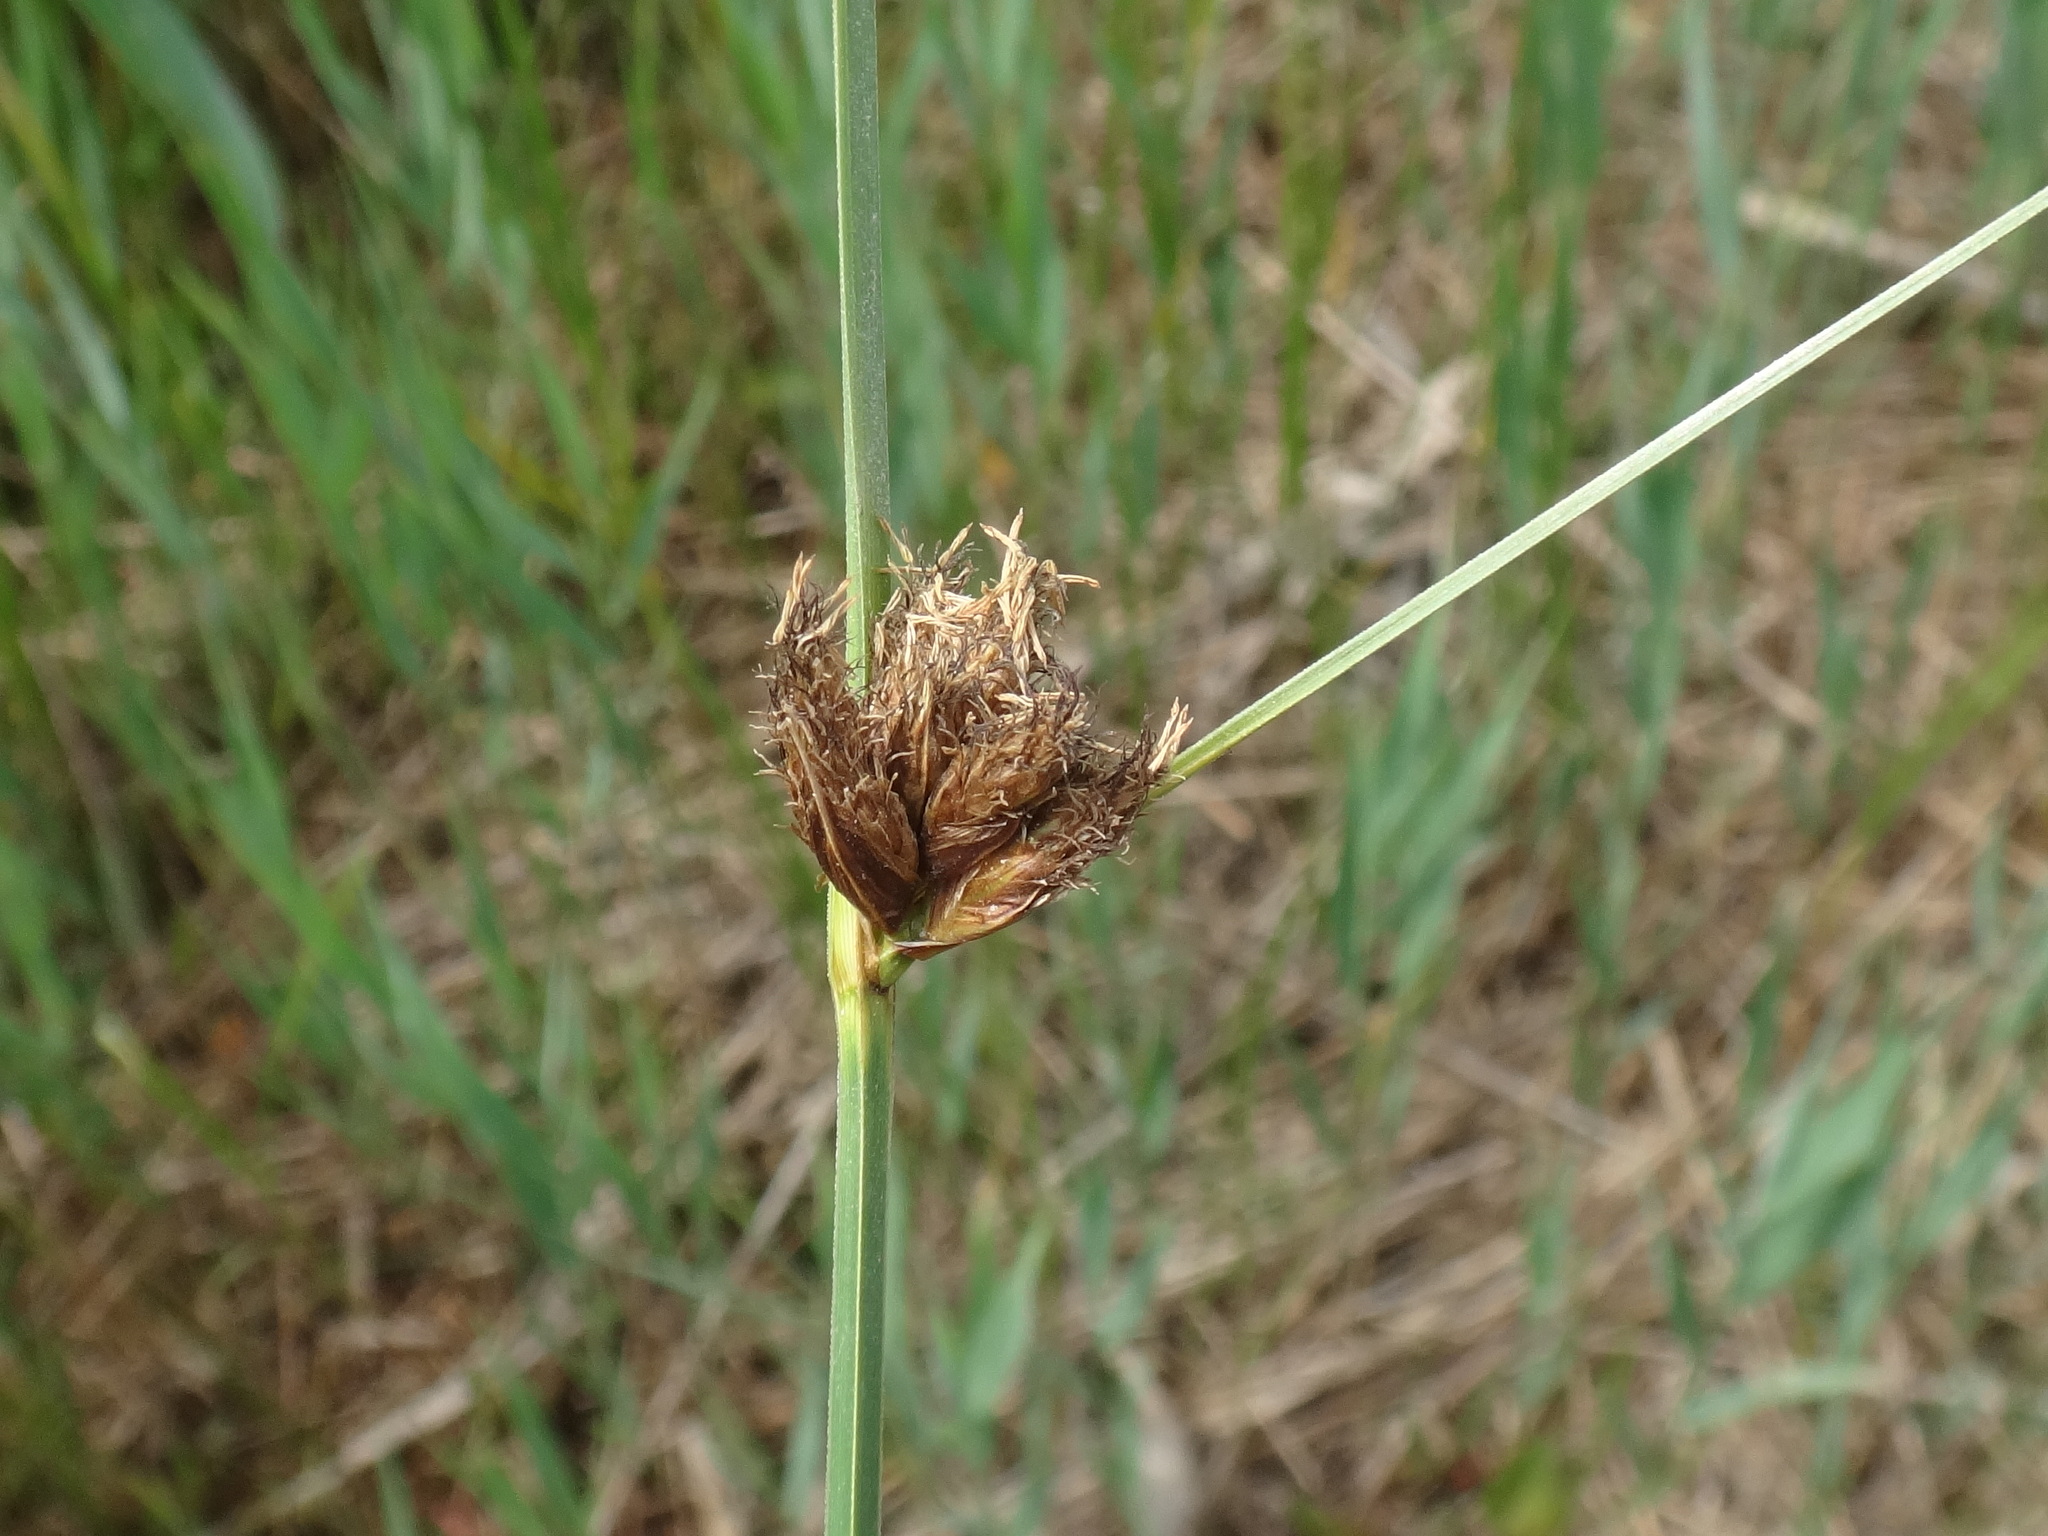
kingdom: Plantae
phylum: Tracheophyta
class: Liliopsida
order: Poales
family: Cyperaceae
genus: Bolboschoenus
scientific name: Bolboschoenus maritimus
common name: Sea club-rush
